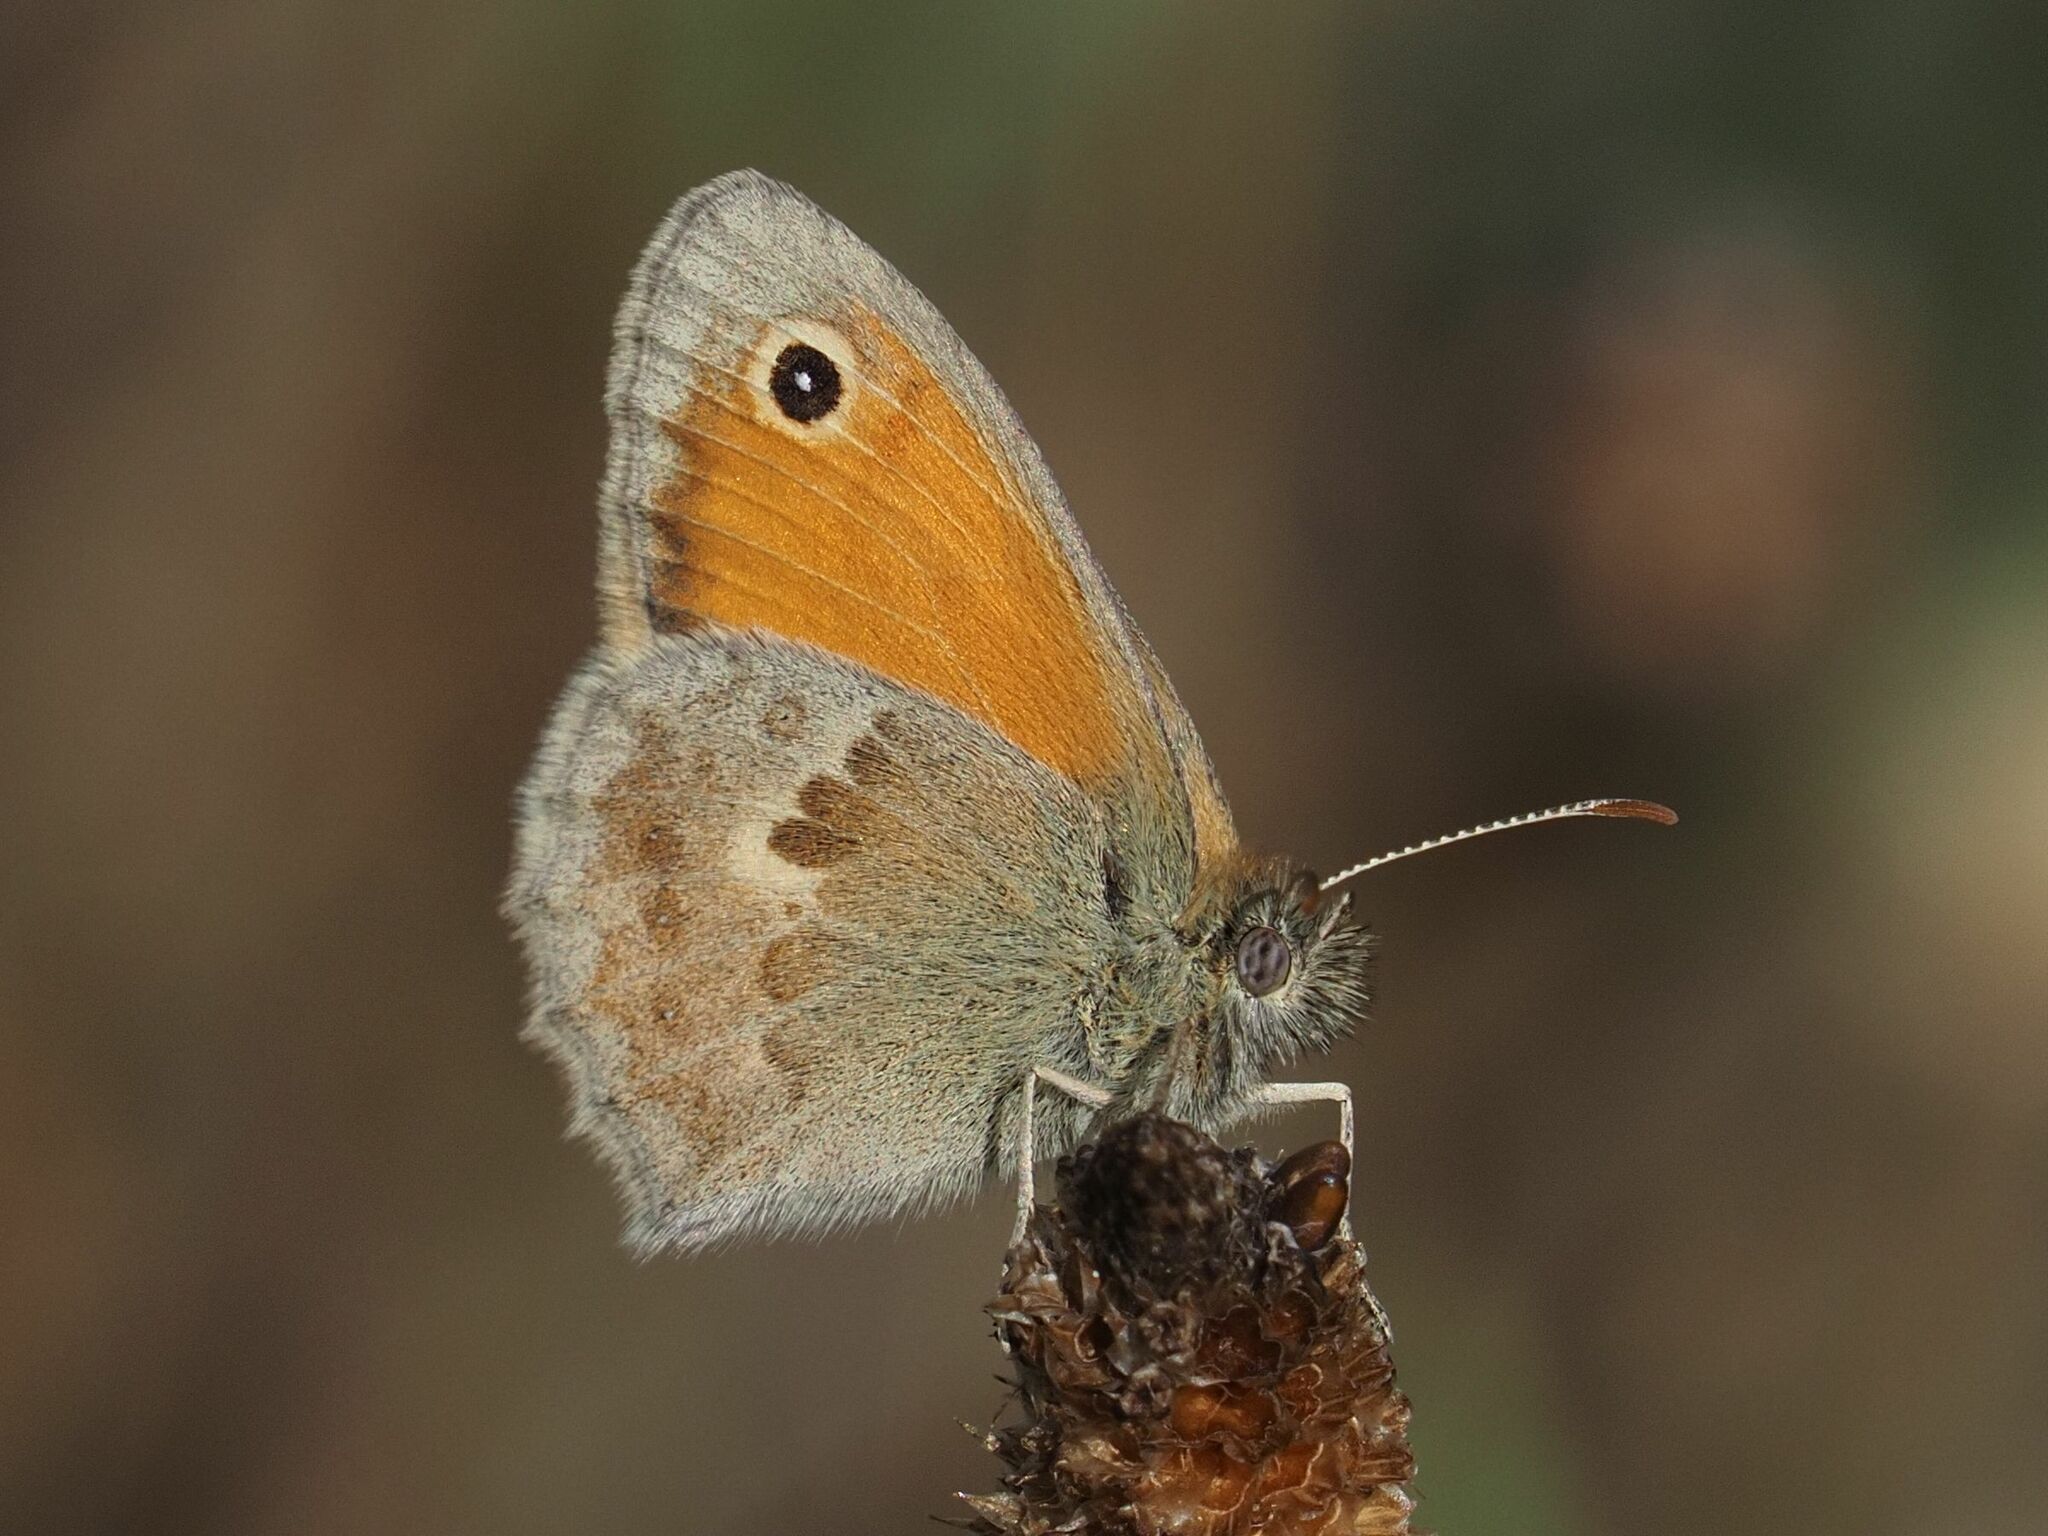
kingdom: Animalia
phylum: Arthropoda
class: Insecta
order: Lepidoptera
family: Nymphalidae
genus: Coenonympha
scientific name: Coenonympha pamphilus
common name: Small heath
